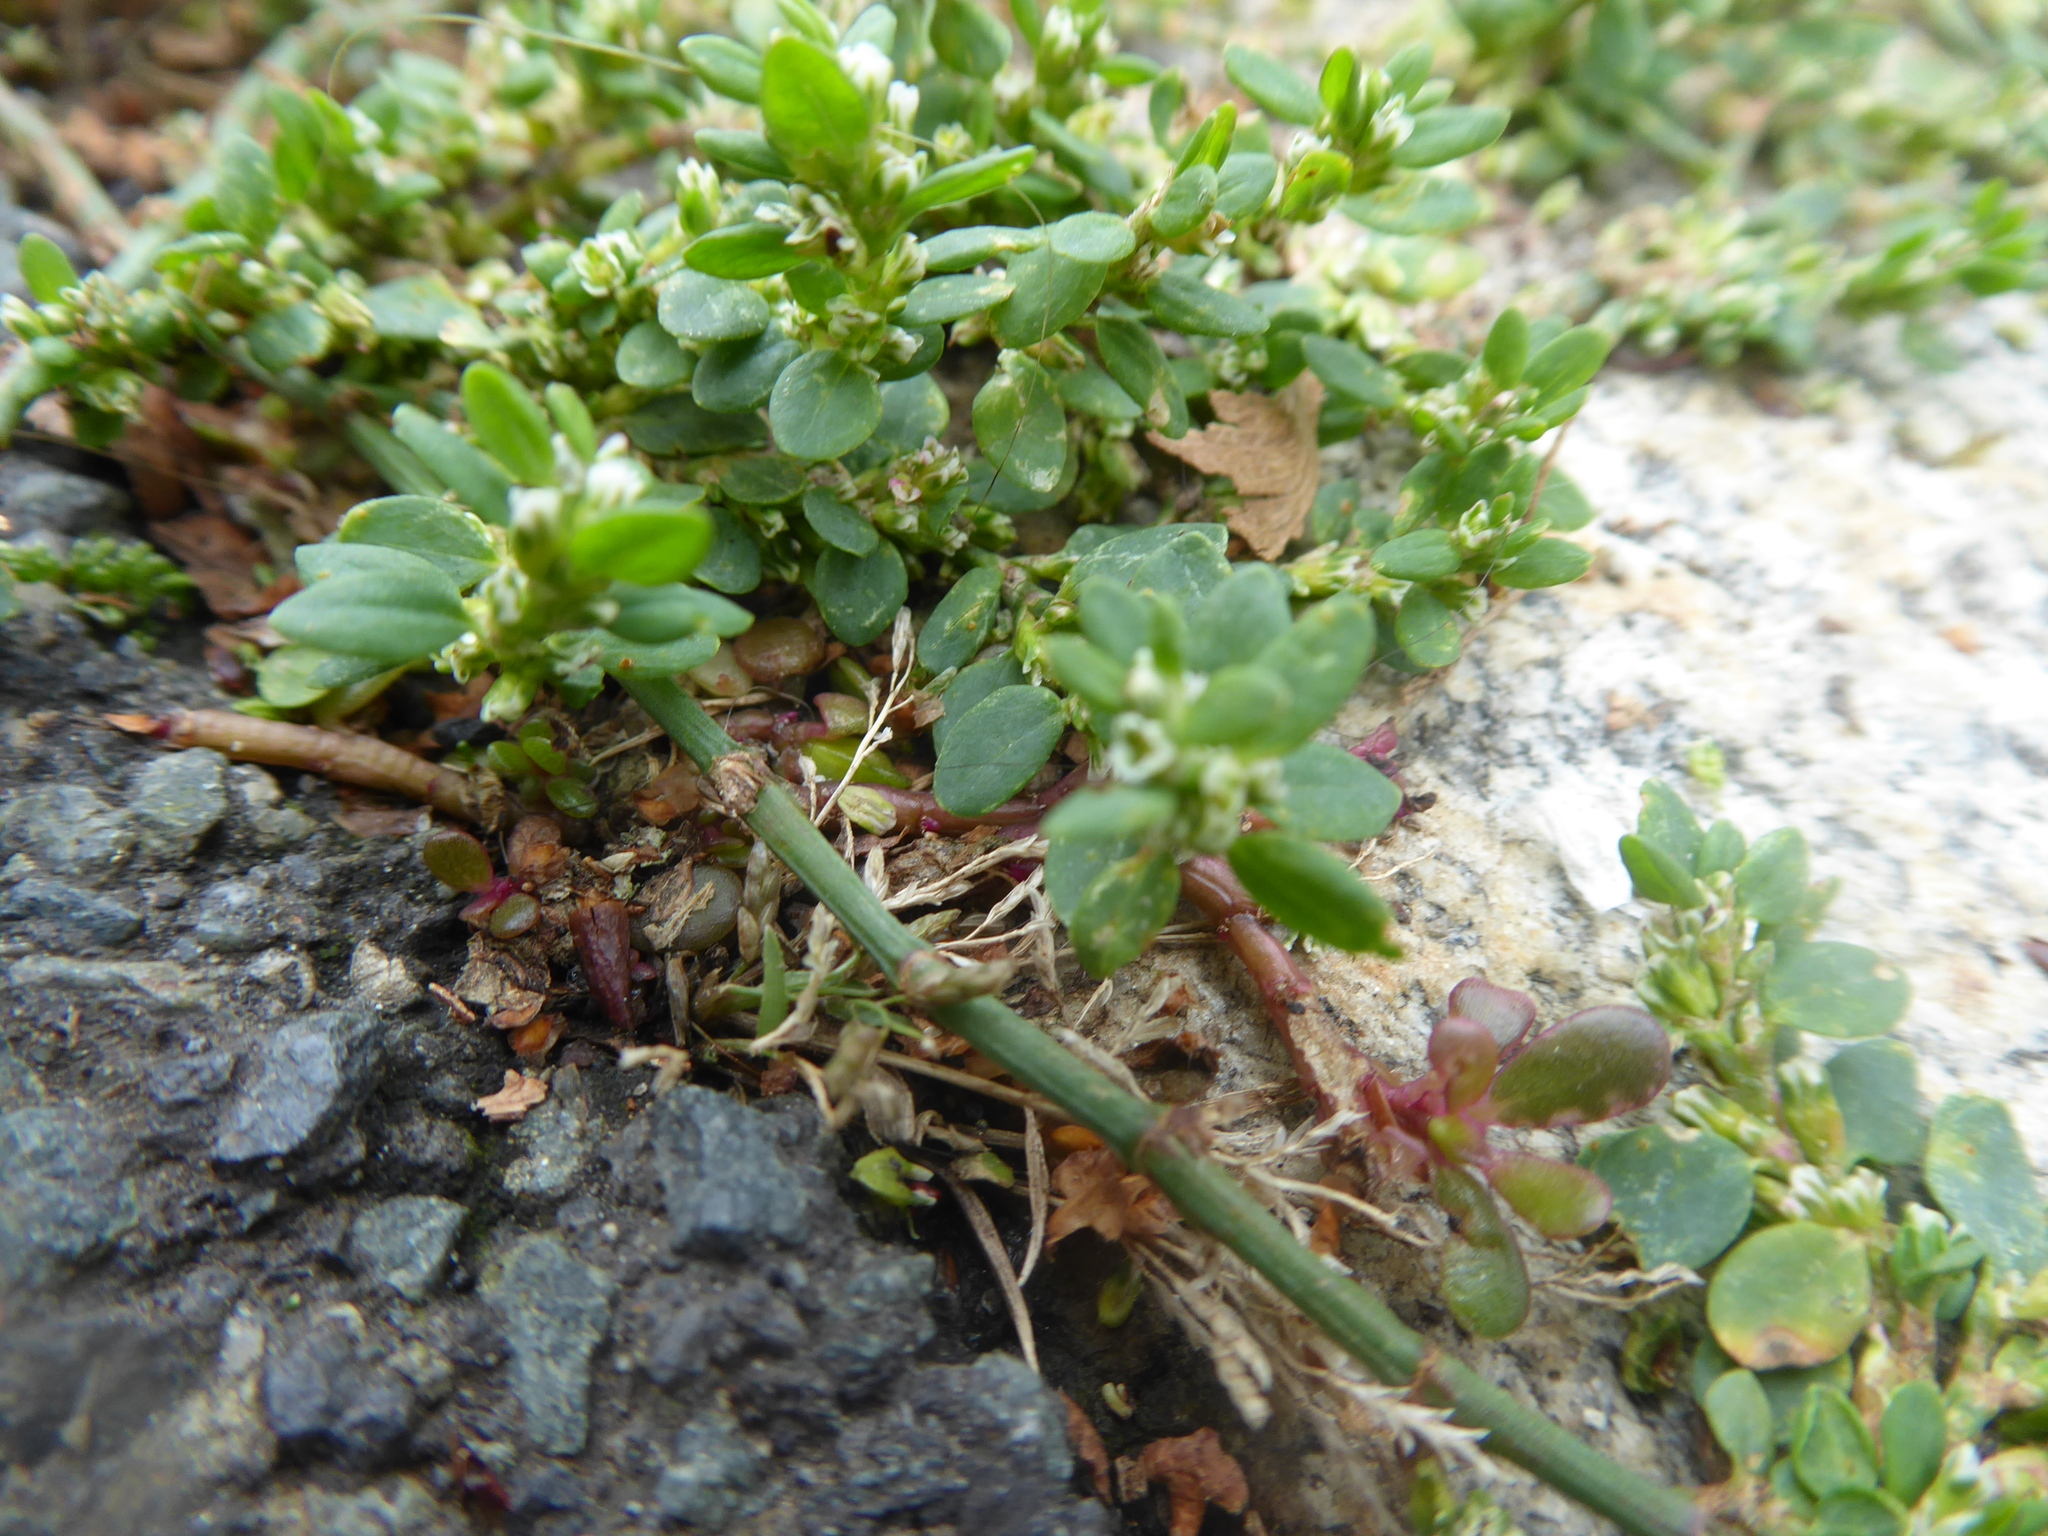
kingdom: Plantae
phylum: Tracheophyta
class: Magnoliopsida
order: Caryophyllales
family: Polygonaceae
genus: Polygonum
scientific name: Polygonum arenastrum
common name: Equal-leaved knotgrass
